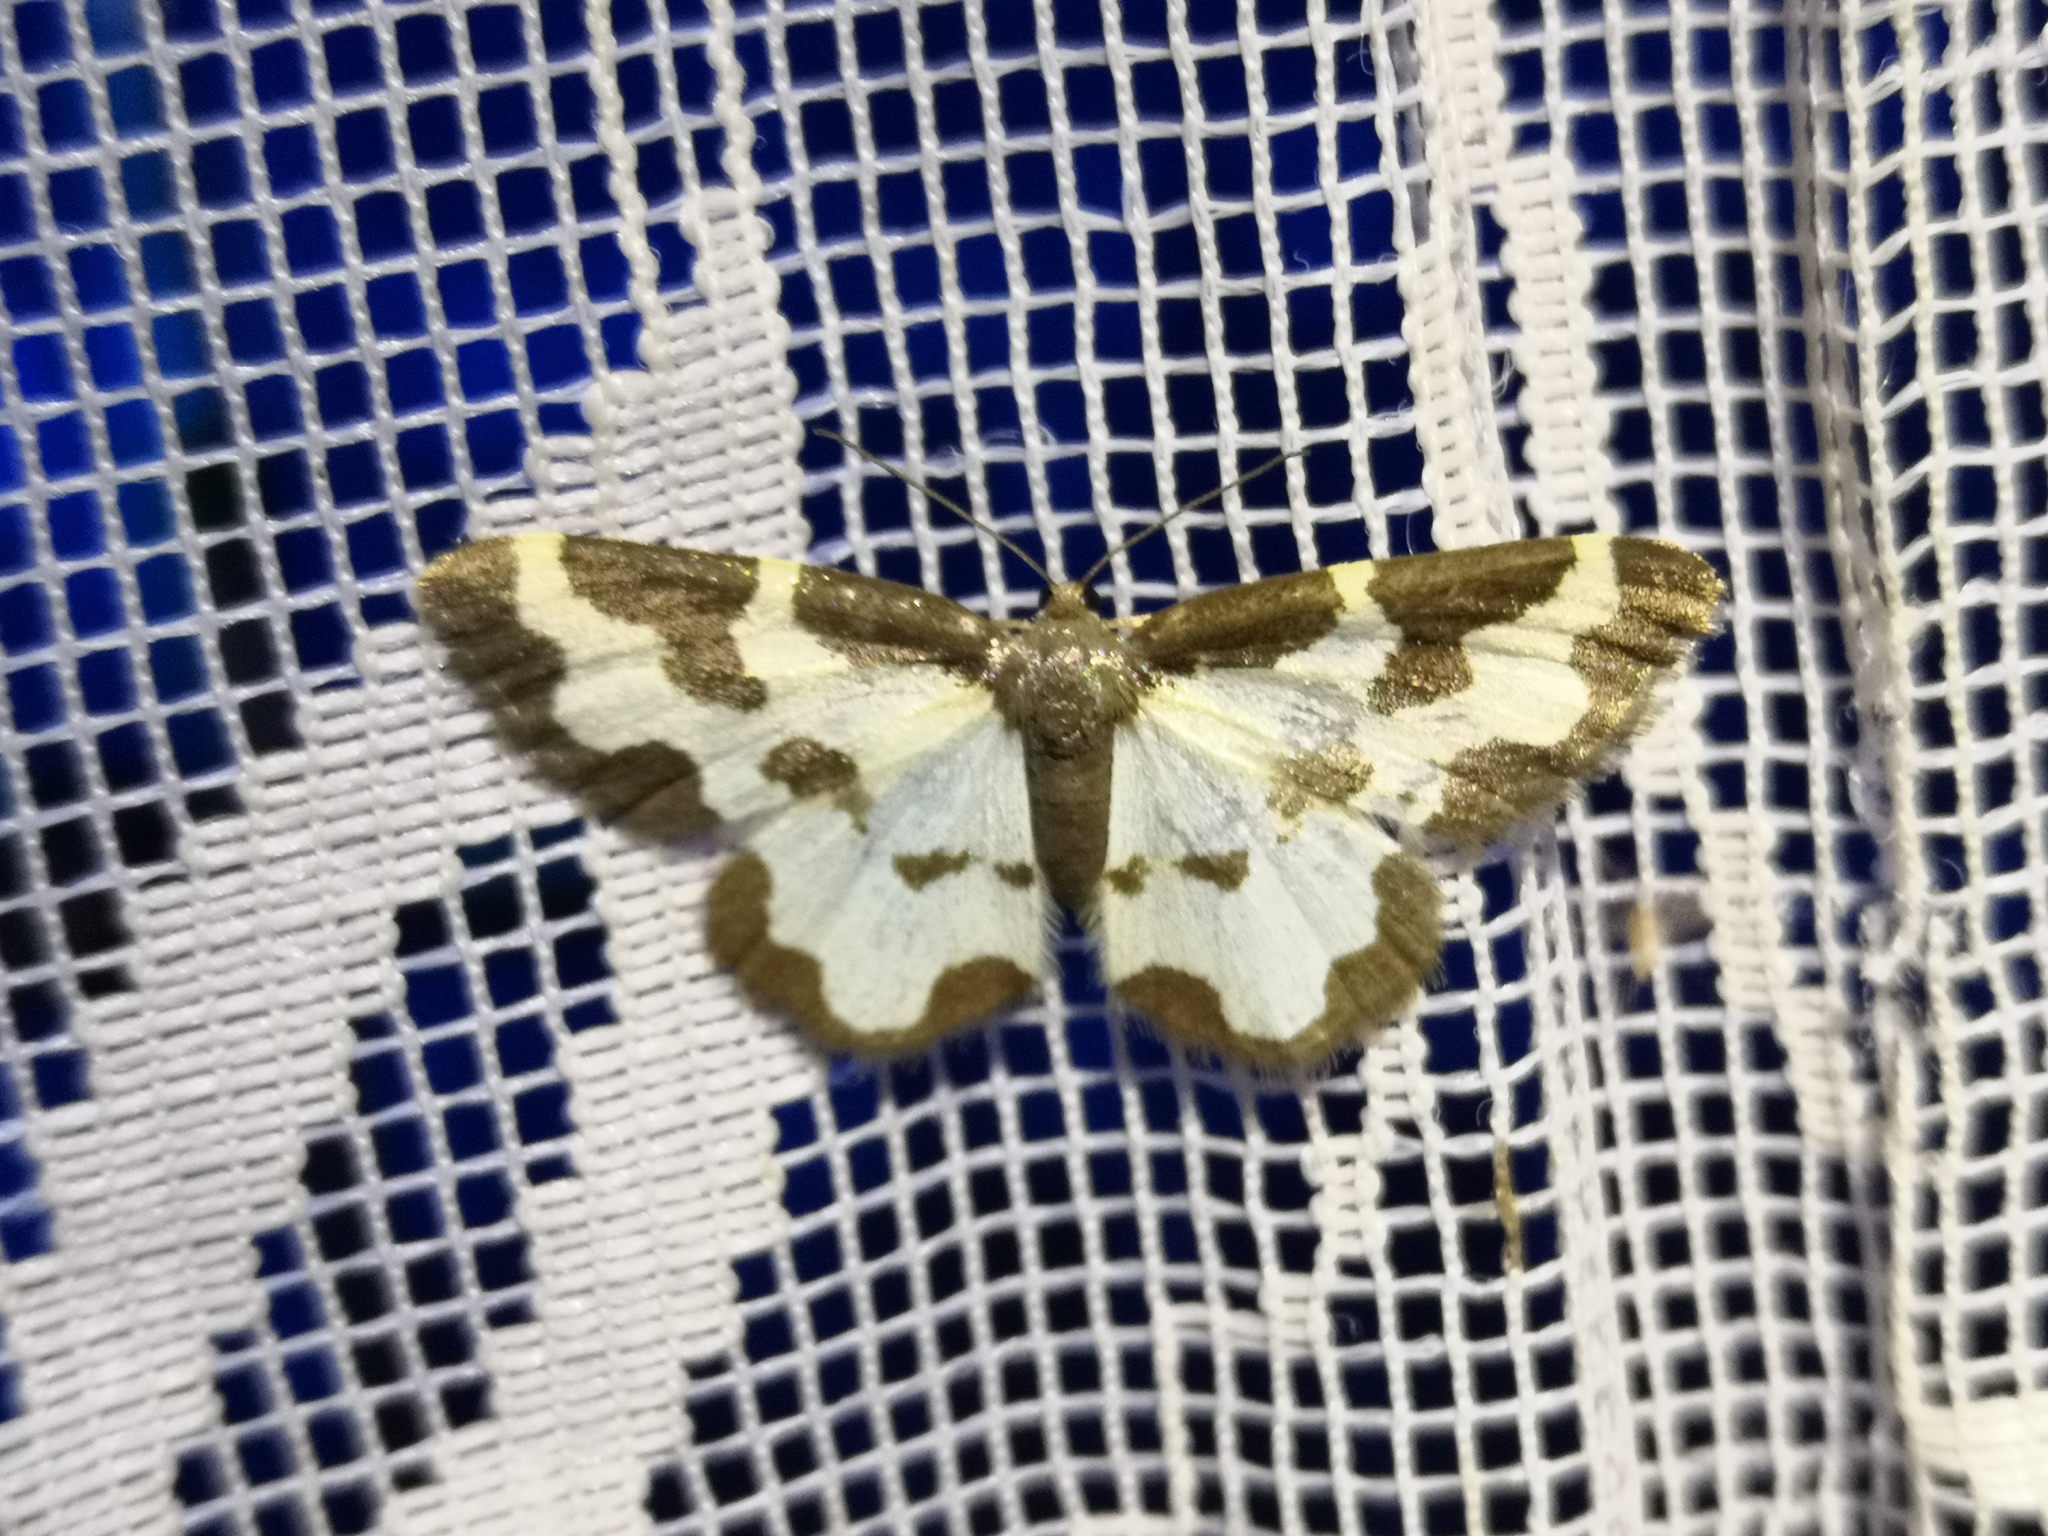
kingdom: Animalia
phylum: Arthropoda
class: Insecta
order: Lepidoptera
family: Geometridae
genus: Lomaspilis
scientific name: Lomaspilis marginata
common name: Clouded border
